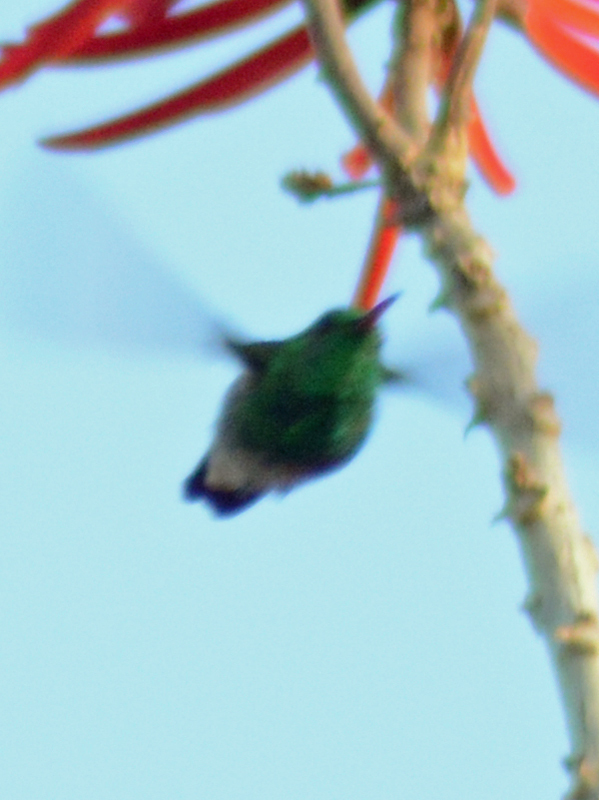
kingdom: Animalia
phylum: Chordata
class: Aves
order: Apodiformes
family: Trochilidae
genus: Cynanthus
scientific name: Cynanthus latirostris
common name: Broad-billed hummingbird
